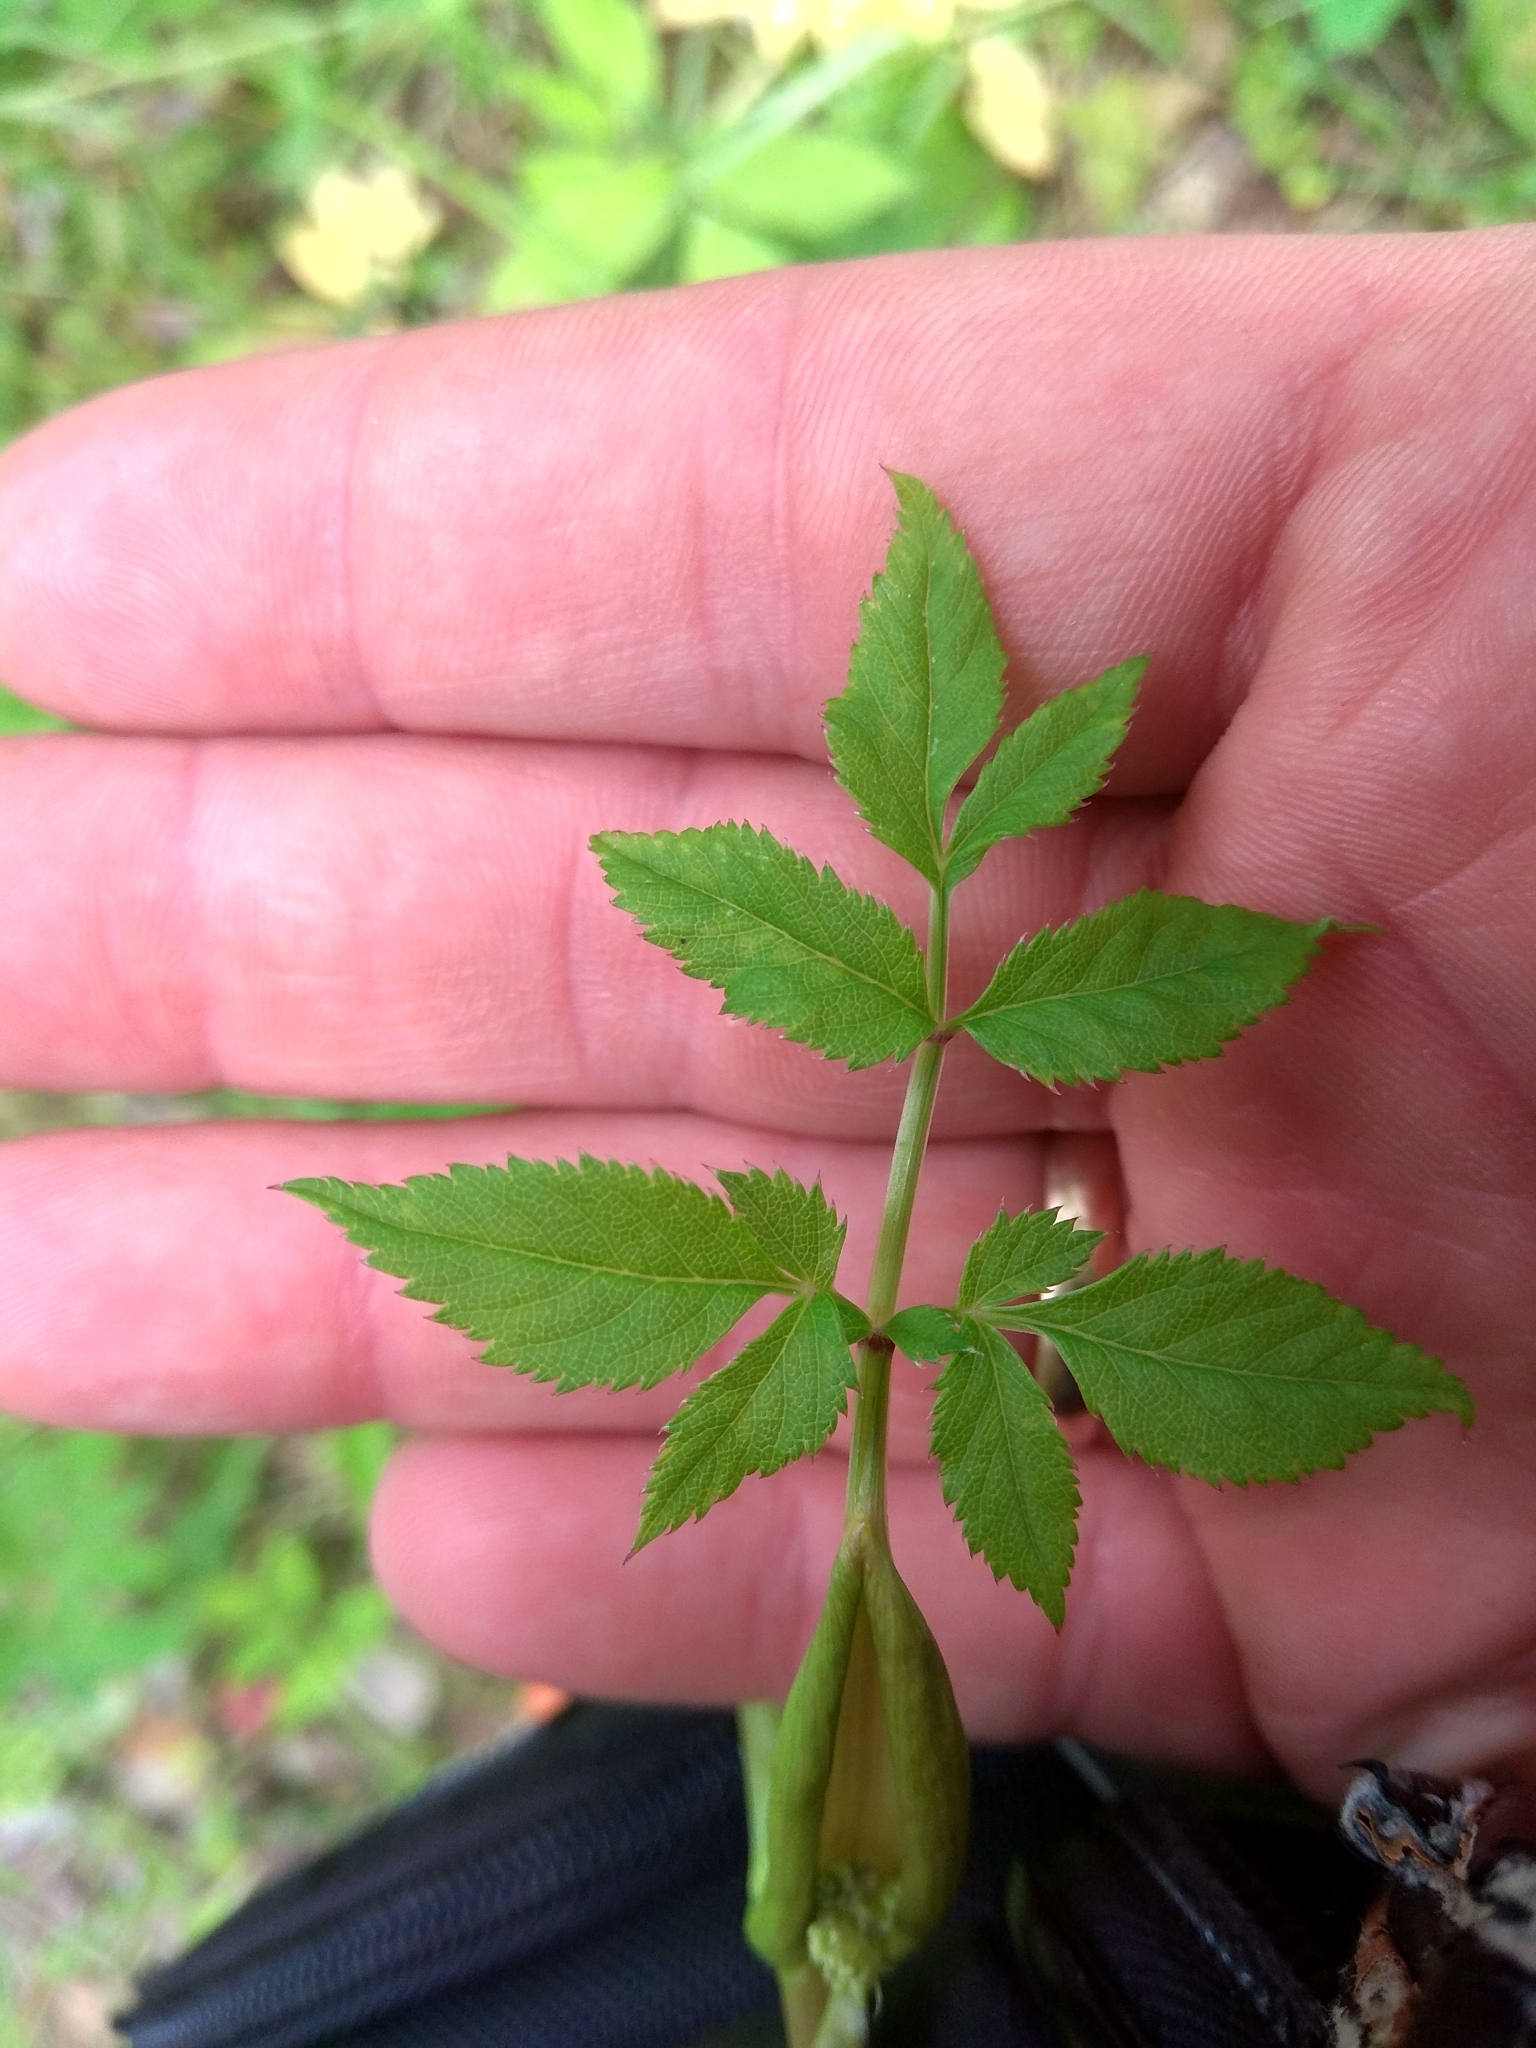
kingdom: Plantae
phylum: Tracheophyta
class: Magnoliopsida
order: Apiales
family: Apiaceae
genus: Angelica
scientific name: Angelica sylvestris
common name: Wild angelica
